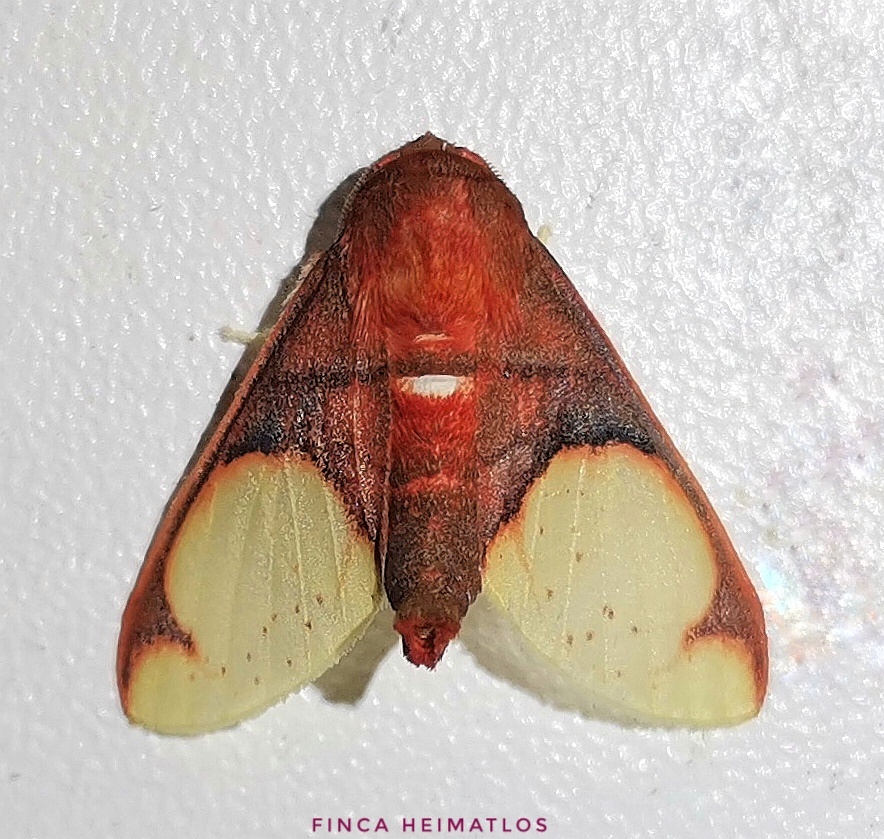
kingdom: Animalia
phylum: Arthropoda
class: Insecta
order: Lepidoptera
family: Erebidae
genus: Neonerita
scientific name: Neonerita incarnata
